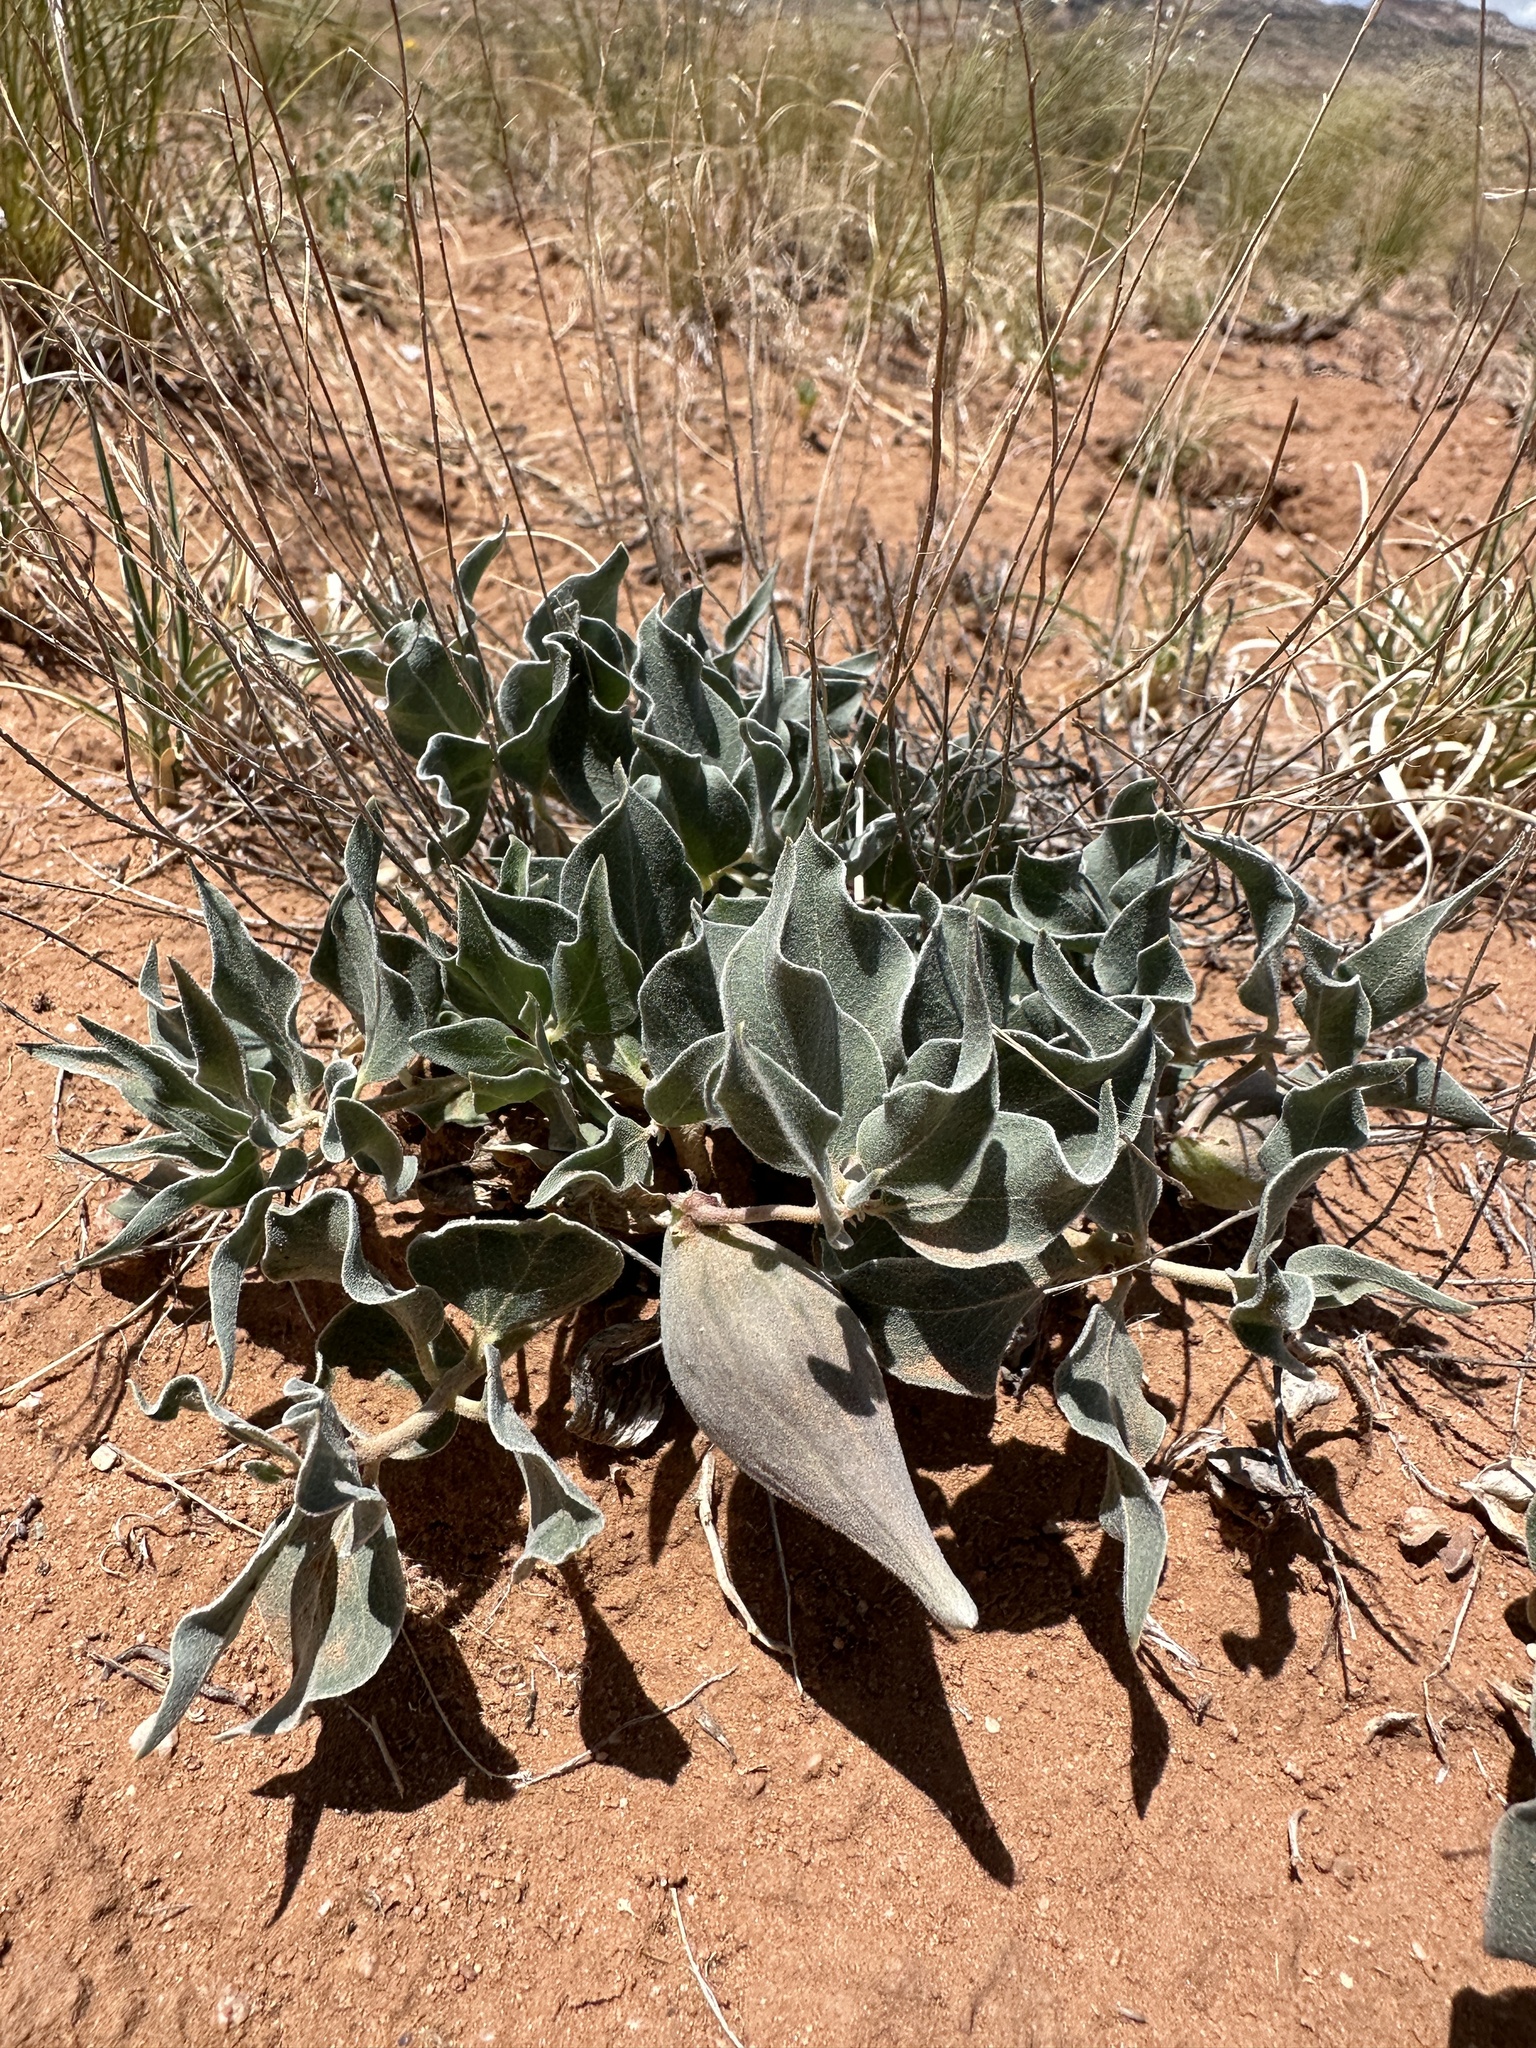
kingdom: Plantae
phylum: Tracheophyta
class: Magnoliopsida
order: Gentianales
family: Apocynaceae
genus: Asclepias
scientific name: Asclepias involucrata
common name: Dwarf milkweed
